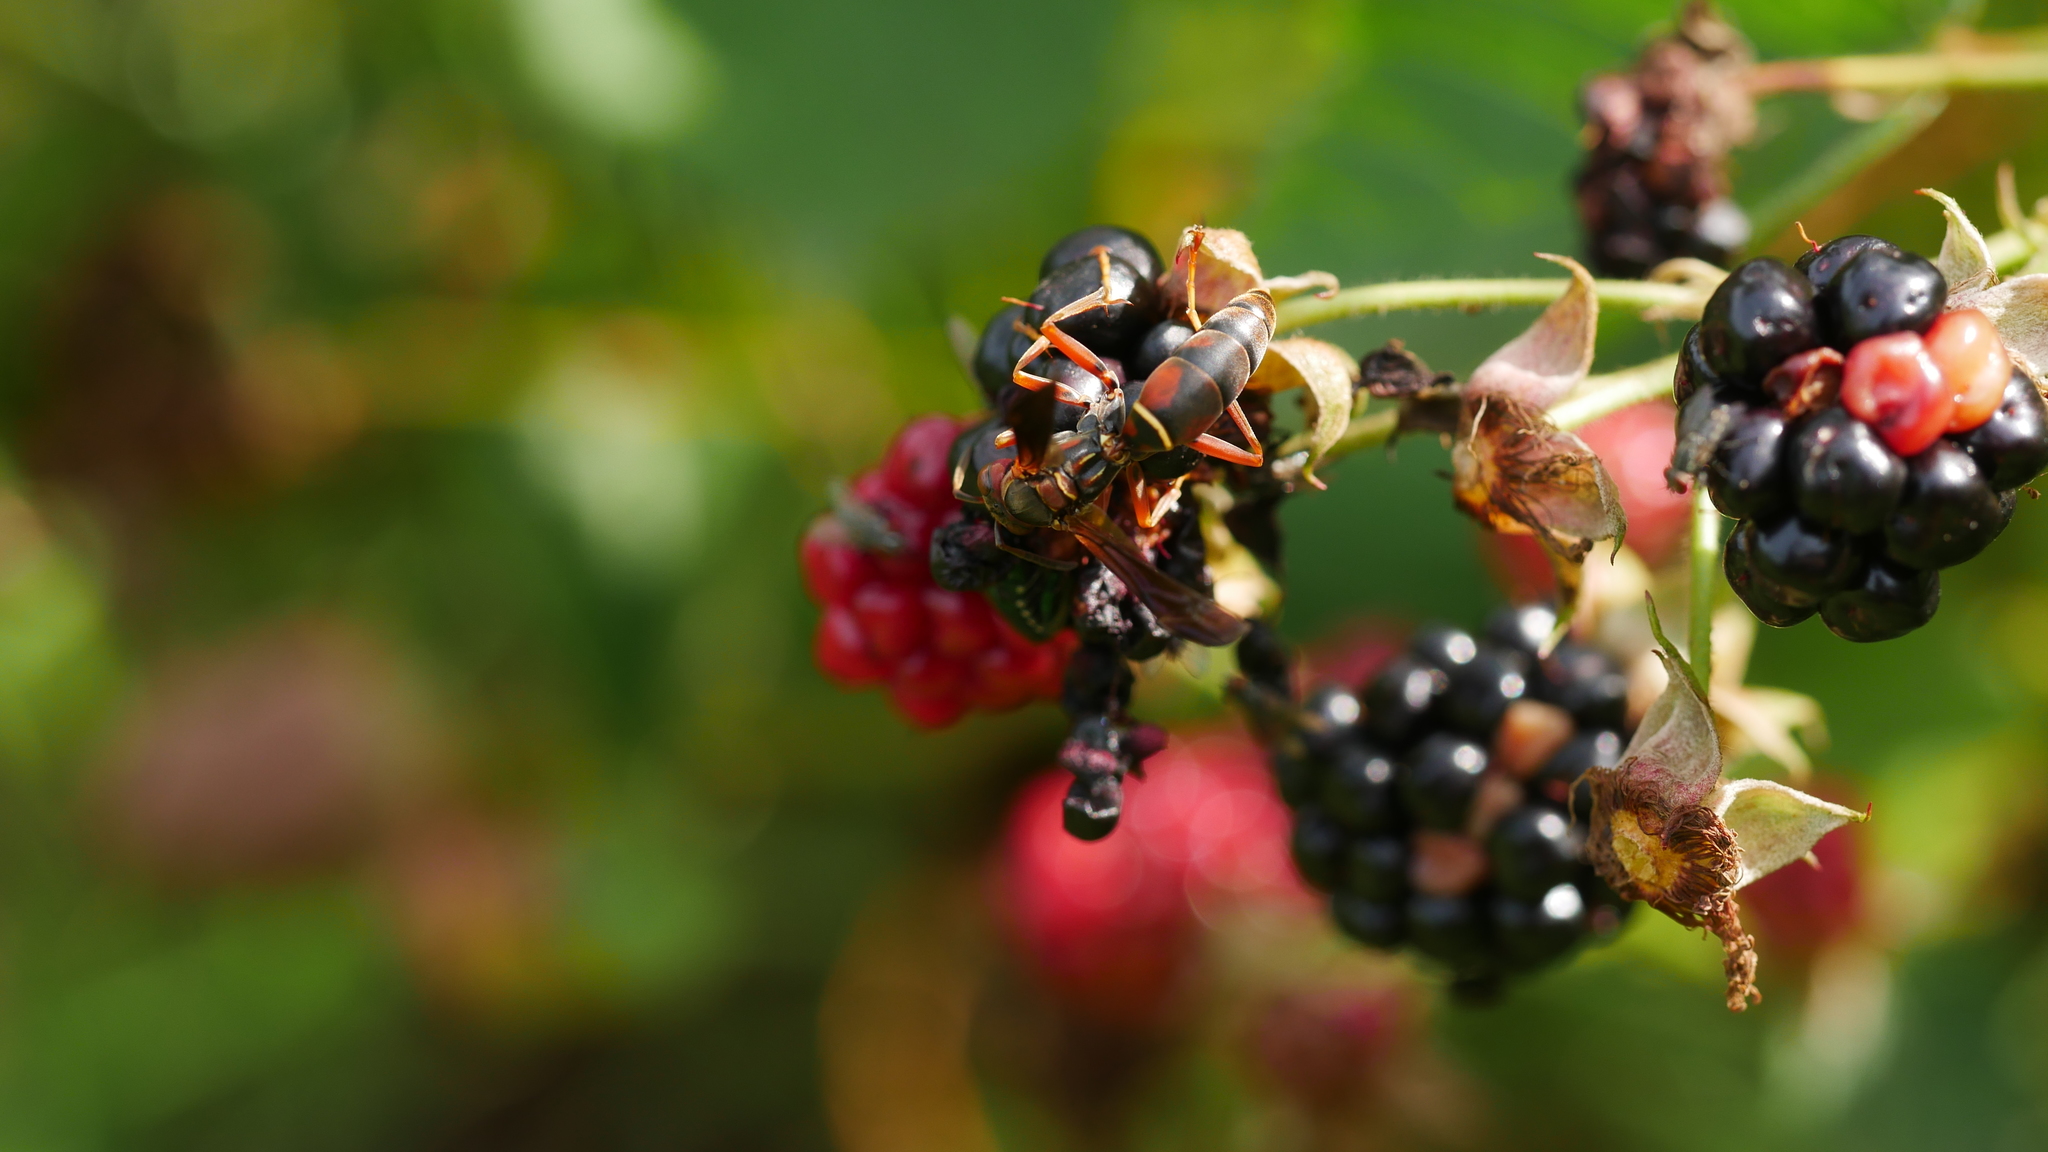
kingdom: Animalia
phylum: Arthropoda
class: Insecta
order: Hymenoptera
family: Vespidae
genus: Fuscopolistes
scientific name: Fuscopolistes
